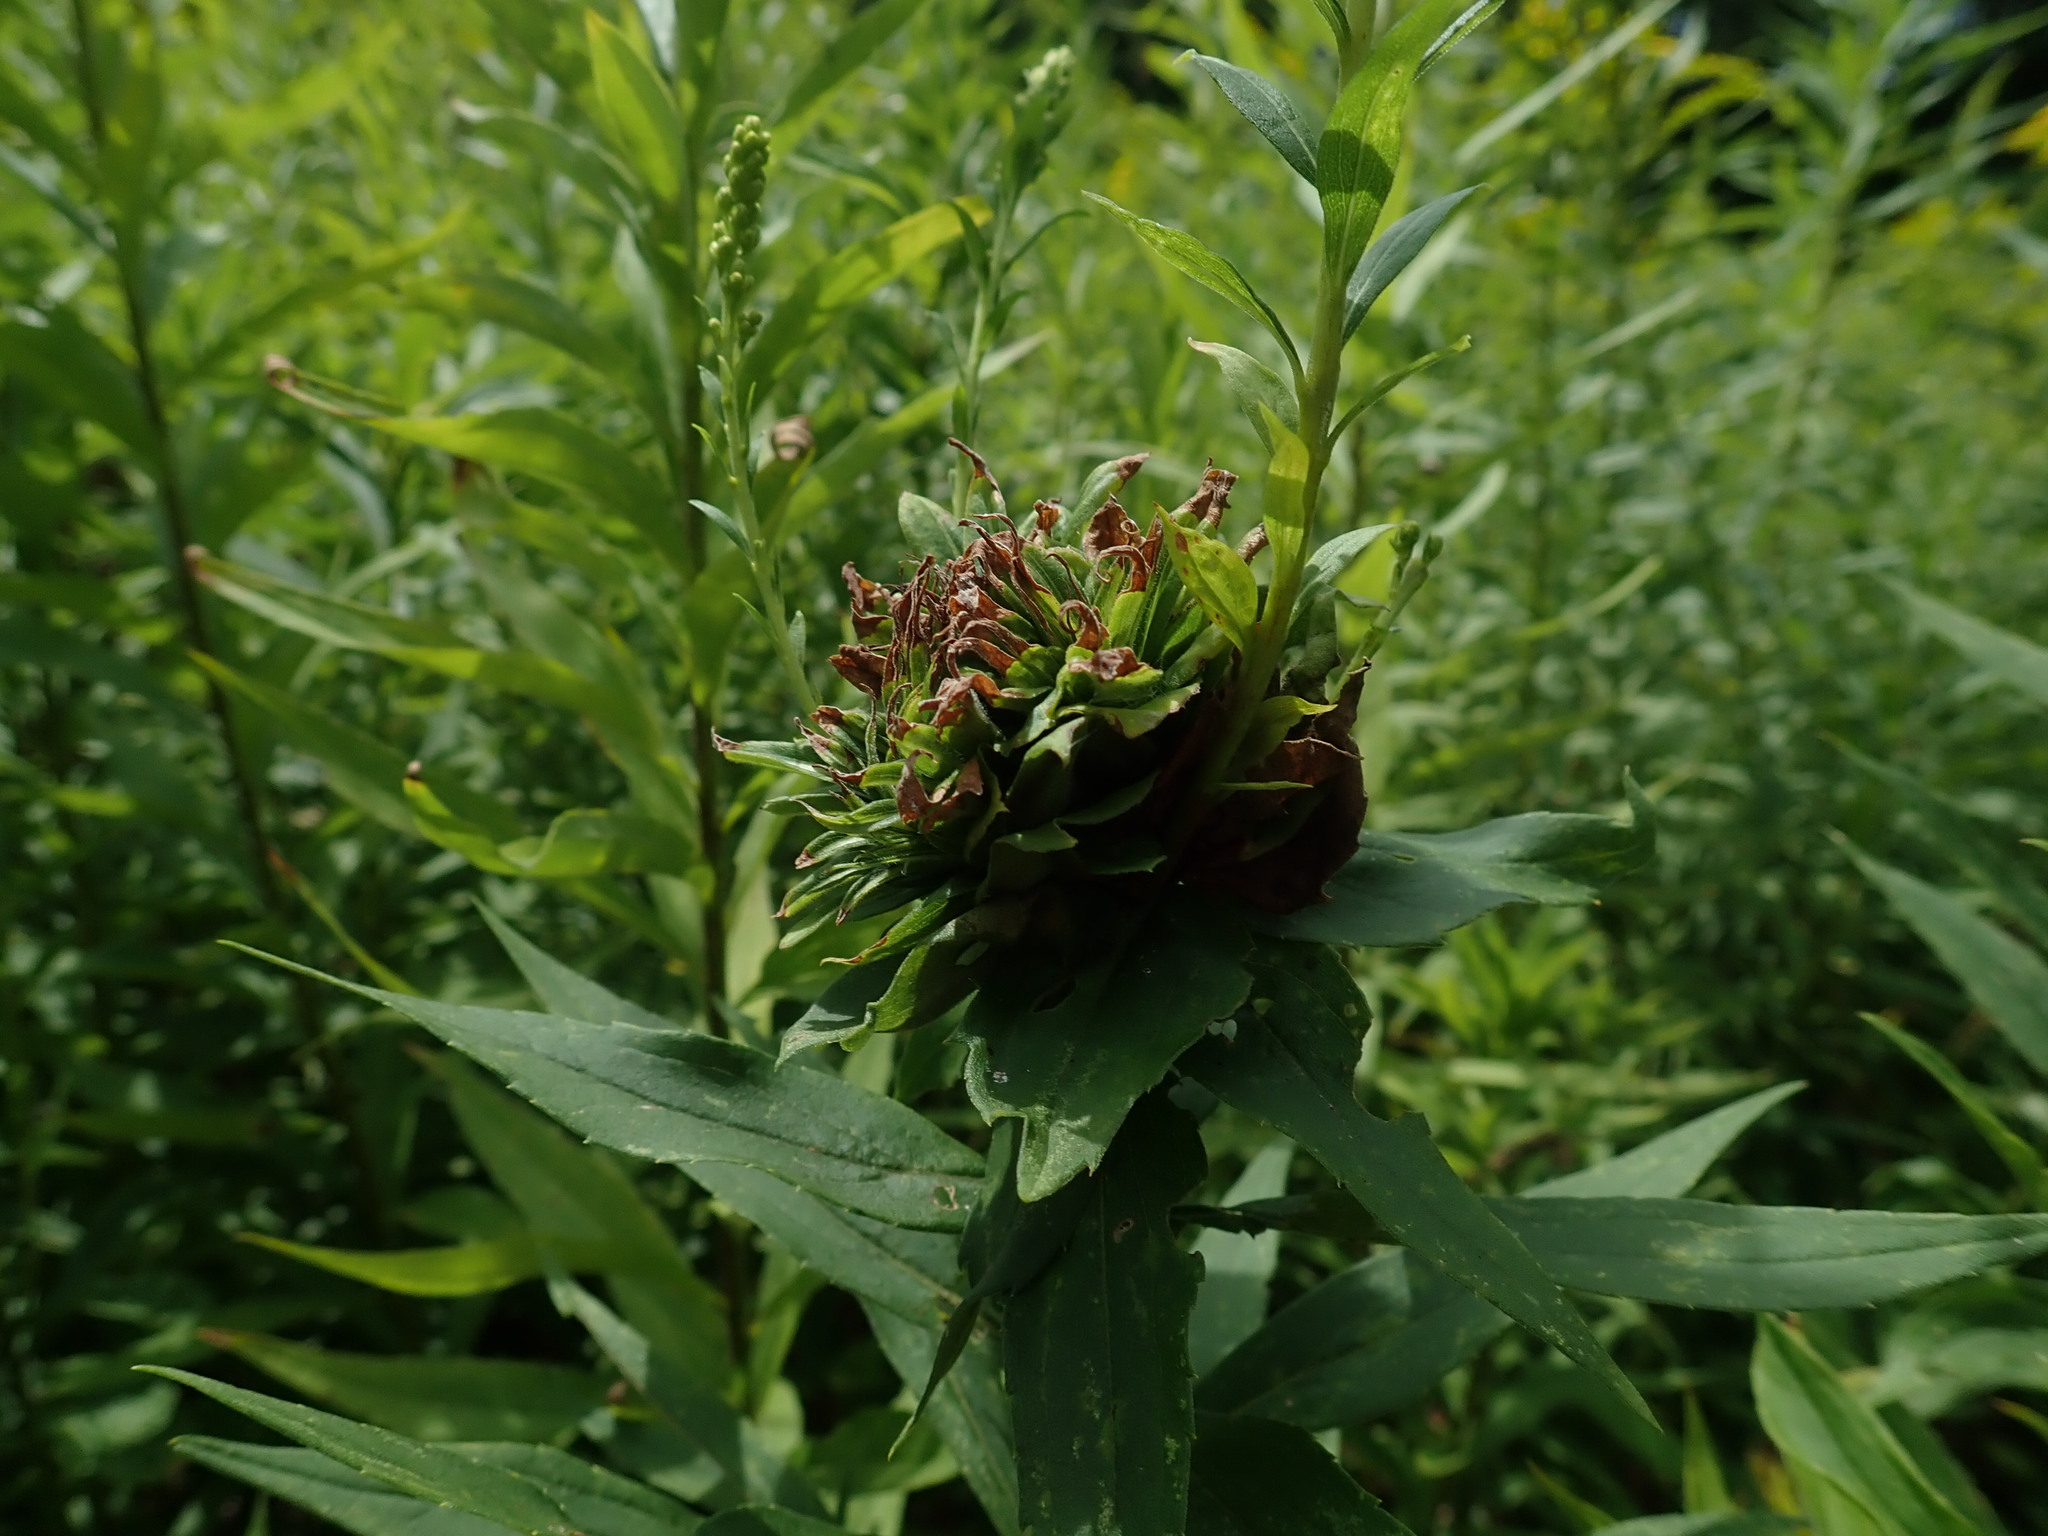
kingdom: Animalia
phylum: Arthropoda
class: Insecta
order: Diptera
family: Cecidomyiidae
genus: Rhopalomyia
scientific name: Rhopalomyia solidaginis
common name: Goldenrod bunch gall midge
